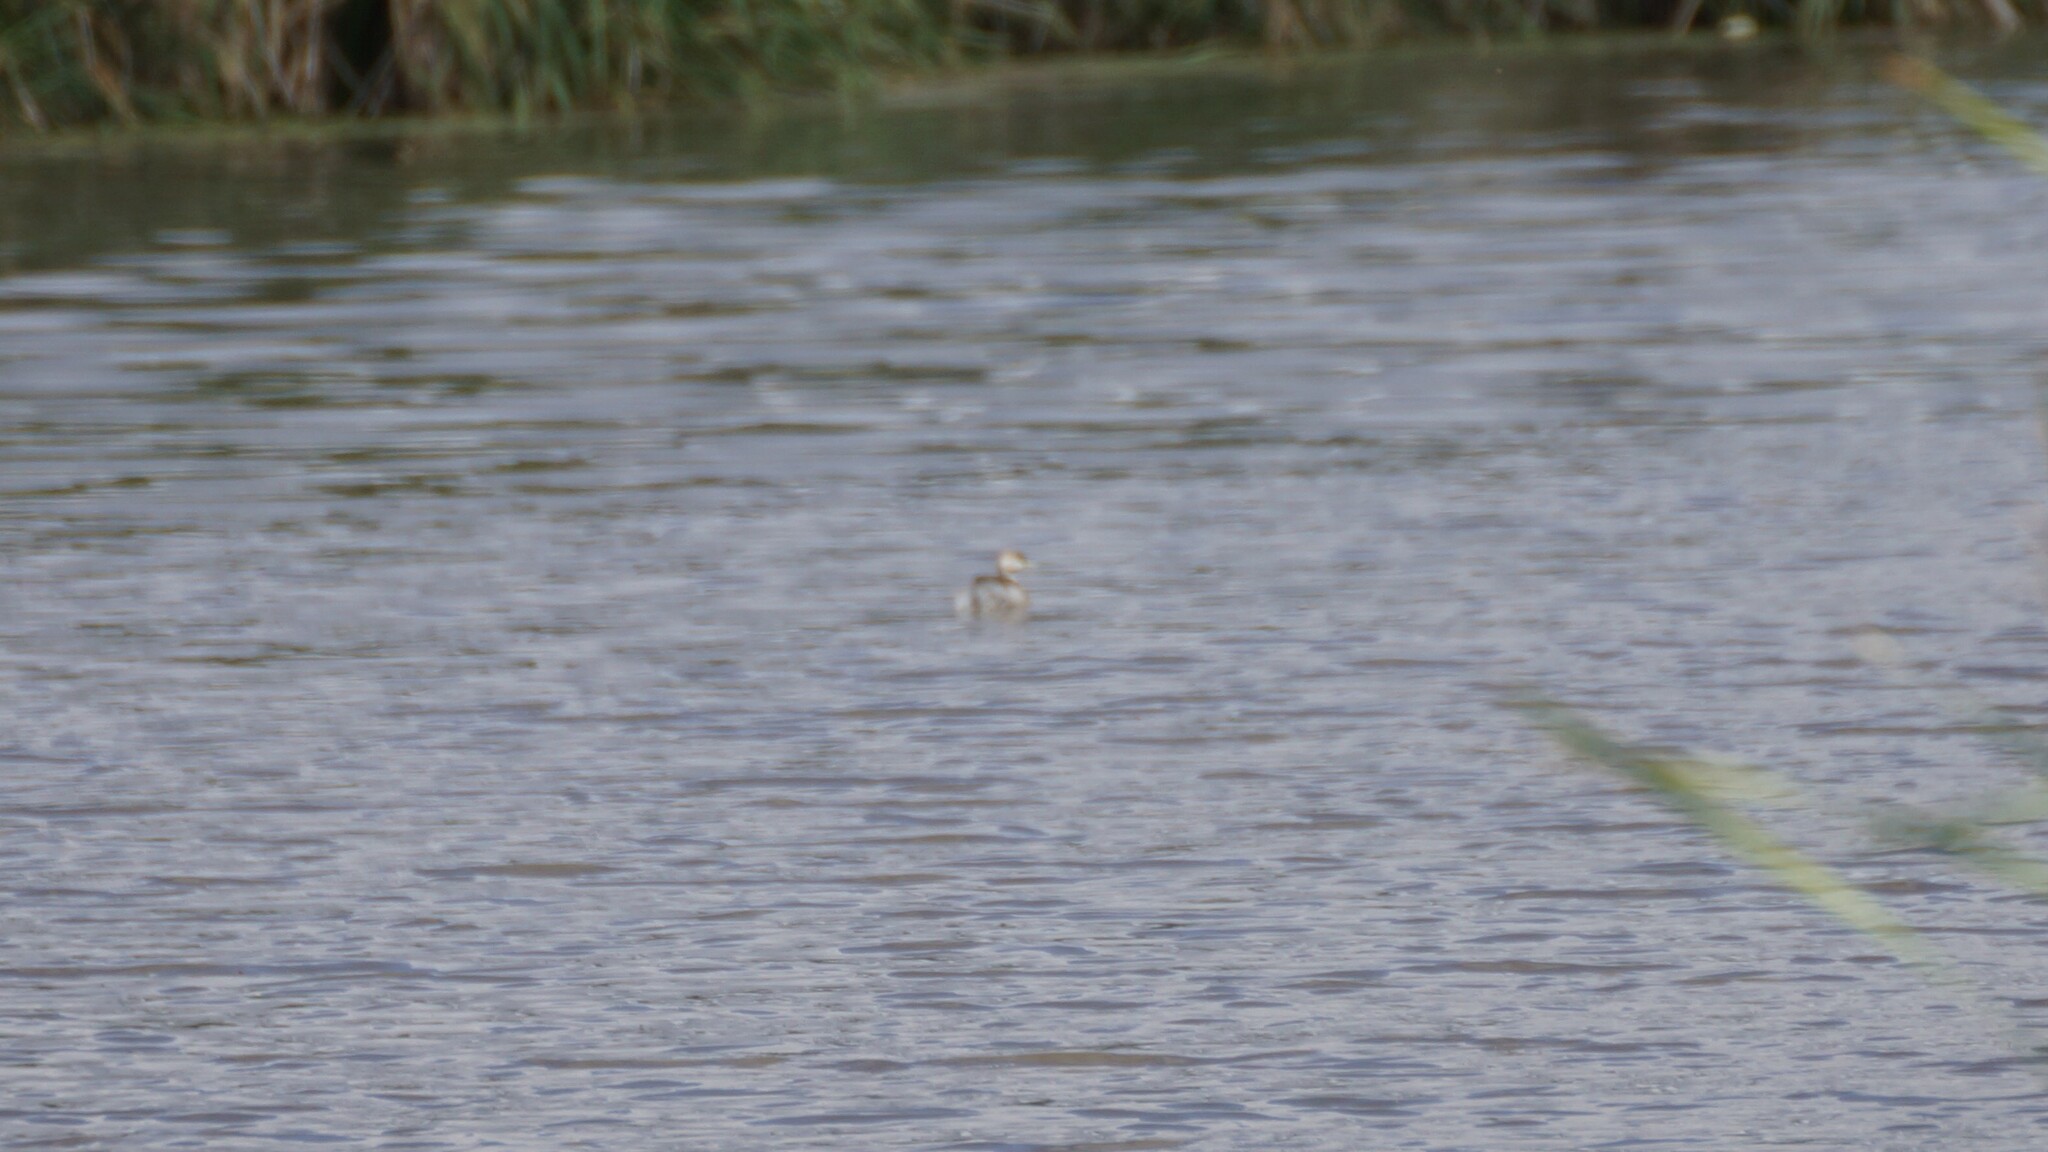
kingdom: Animalia
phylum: Chordata
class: Aves
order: Podicipediformes
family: Podicipedidae
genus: Poliocephalus
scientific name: Poliocephalus poliocephalus
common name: Hoary-headed grebe
